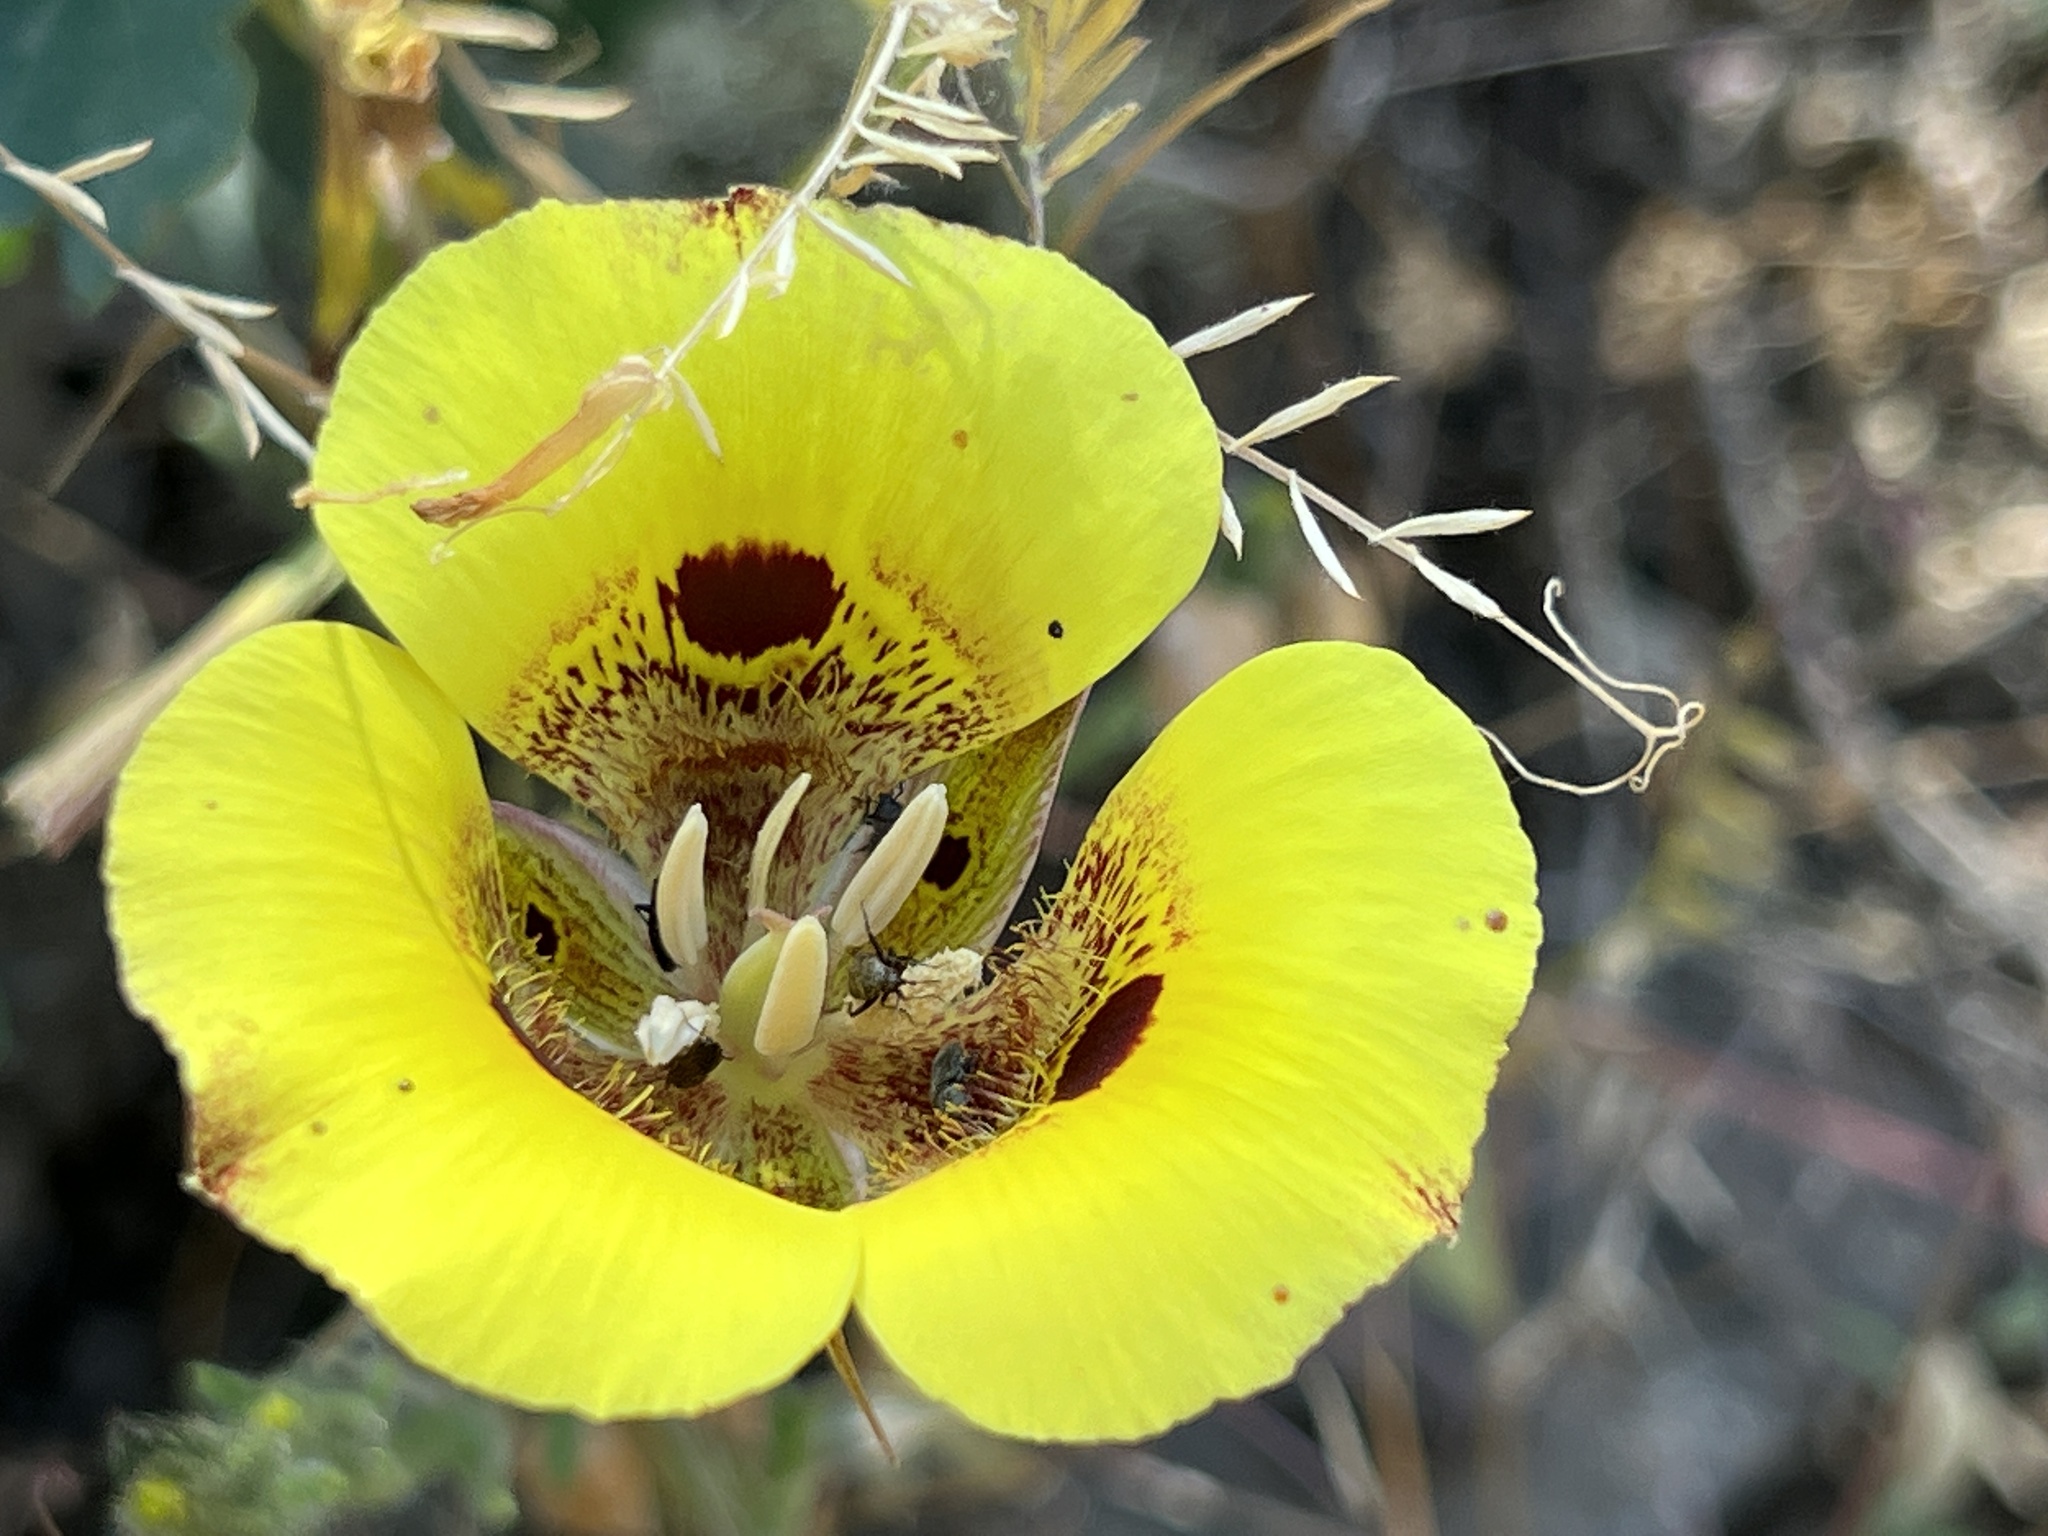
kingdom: Plantae
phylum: Tracheophyta
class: Liliopsida
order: Liliales
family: Liliaceae
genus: Calochortus
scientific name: Calochortus luteus
